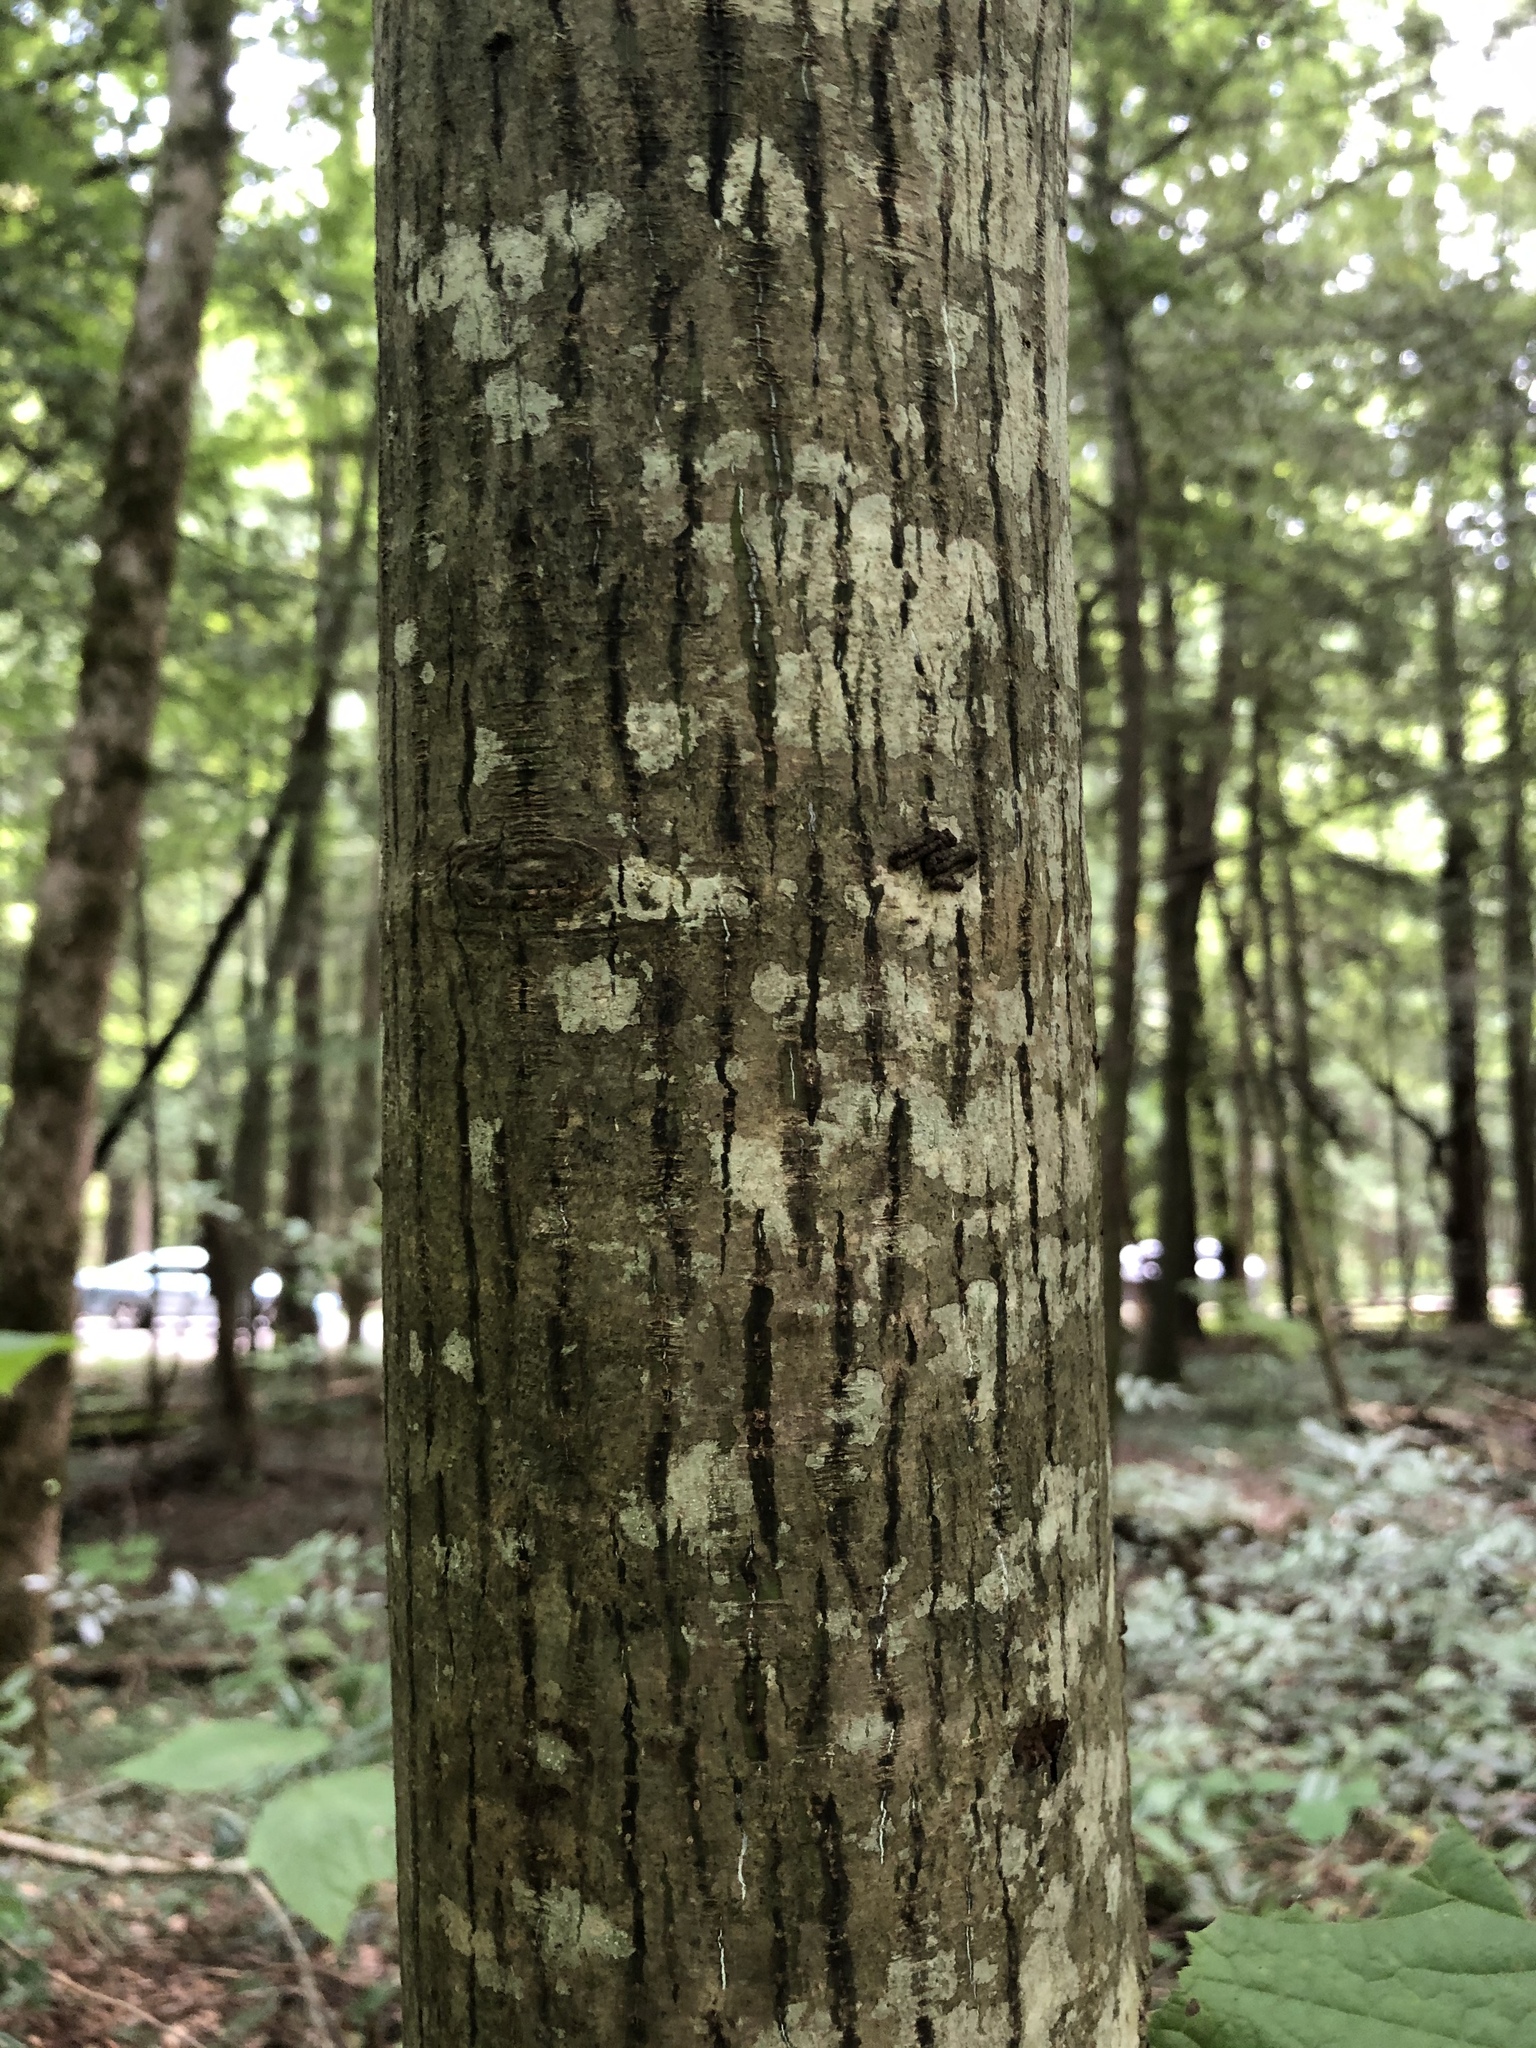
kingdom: Plantae
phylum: Tracheophyta
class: Magnoliopsida
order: Sapindales
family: Sapindaceae
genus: Acer
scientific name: Acer pensylvanicum
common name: Moosewood
